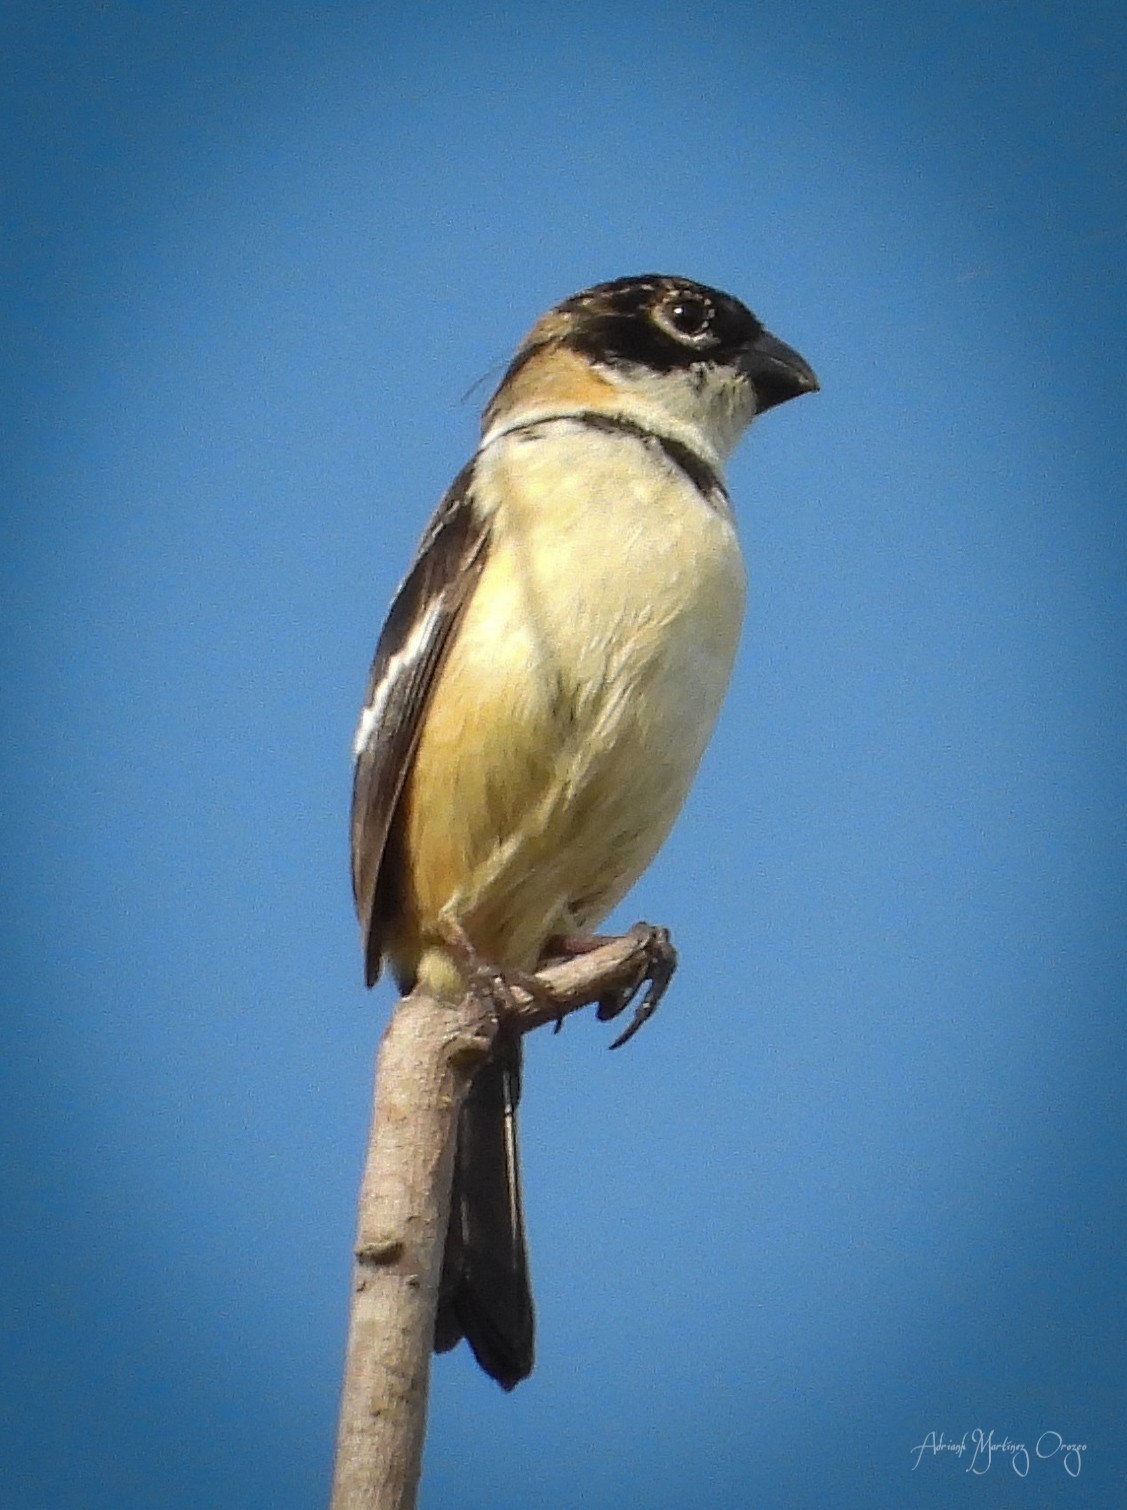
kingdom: Animalia
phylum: Chordata
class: Aves
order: Passeriformes
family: Thraupidae
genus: Sporophila
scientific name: Sporophila morelleti
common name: Morelet's seedeater
